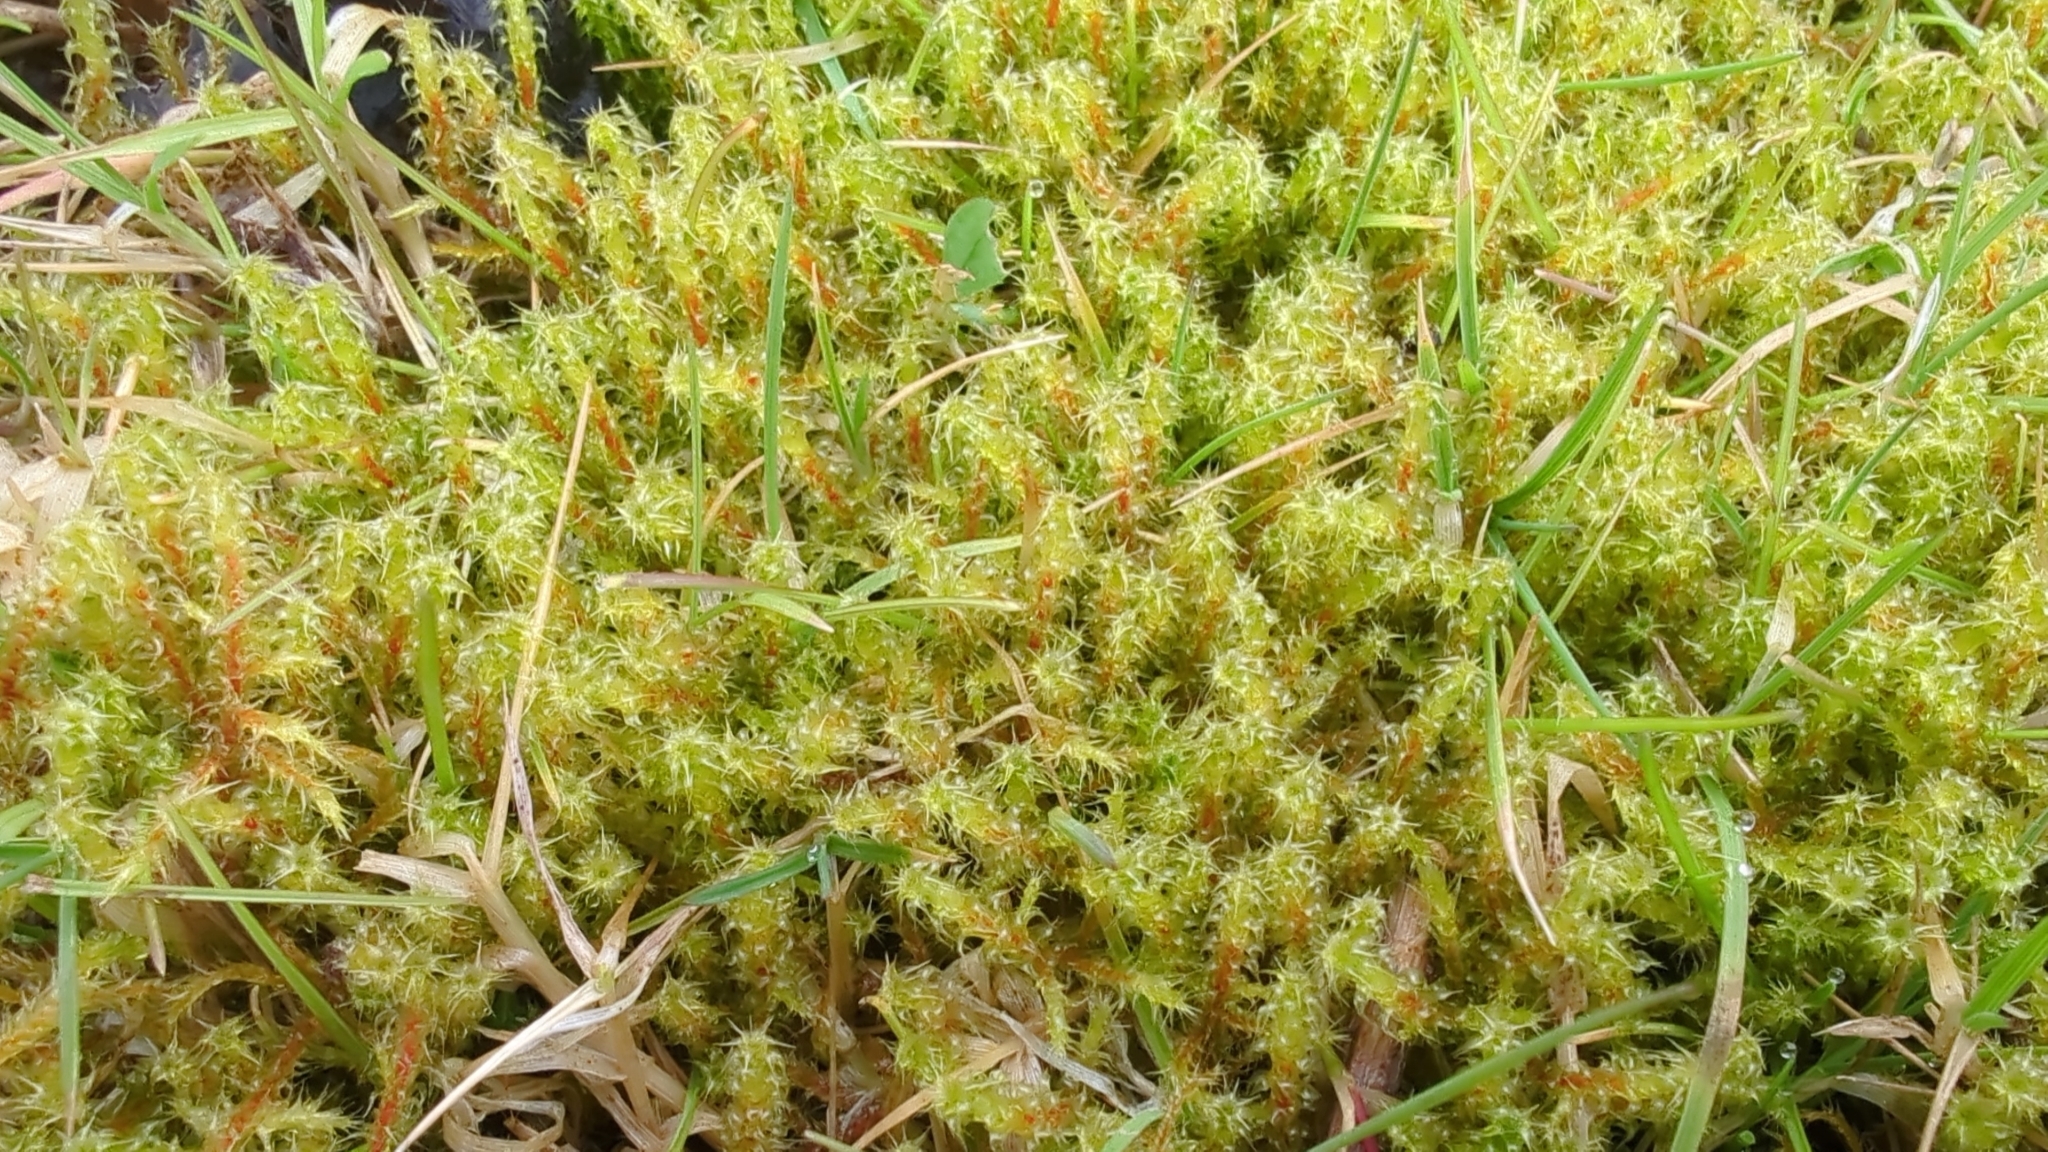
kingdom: Plantae
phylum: Bryophyta
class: Bryopsida
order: Hypnales
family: Hylocomiaceae
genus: Rhytidiadelphus
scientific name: Rhytidiadelphus squarrosus
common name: Springy turf-moss
